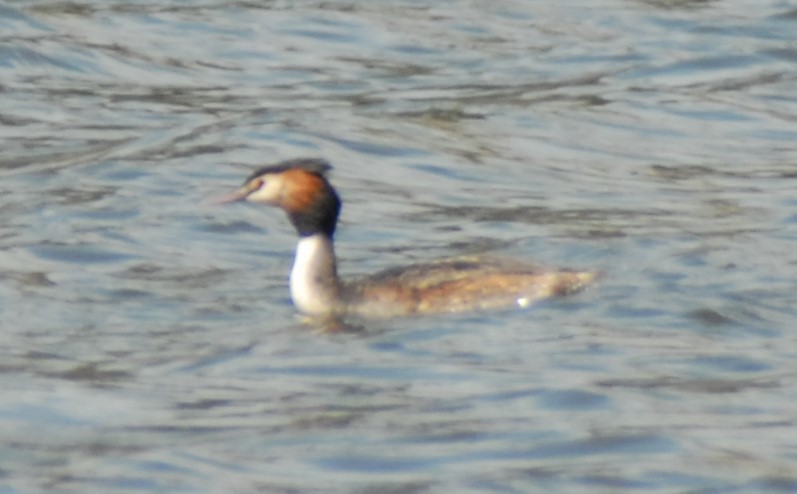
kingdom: Animalia
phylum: Chordata
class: Aves
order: Podicipediformes
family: Podicipedidae
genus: Podiceps
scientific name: Podiceps cristatus
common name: Great crested grebe
